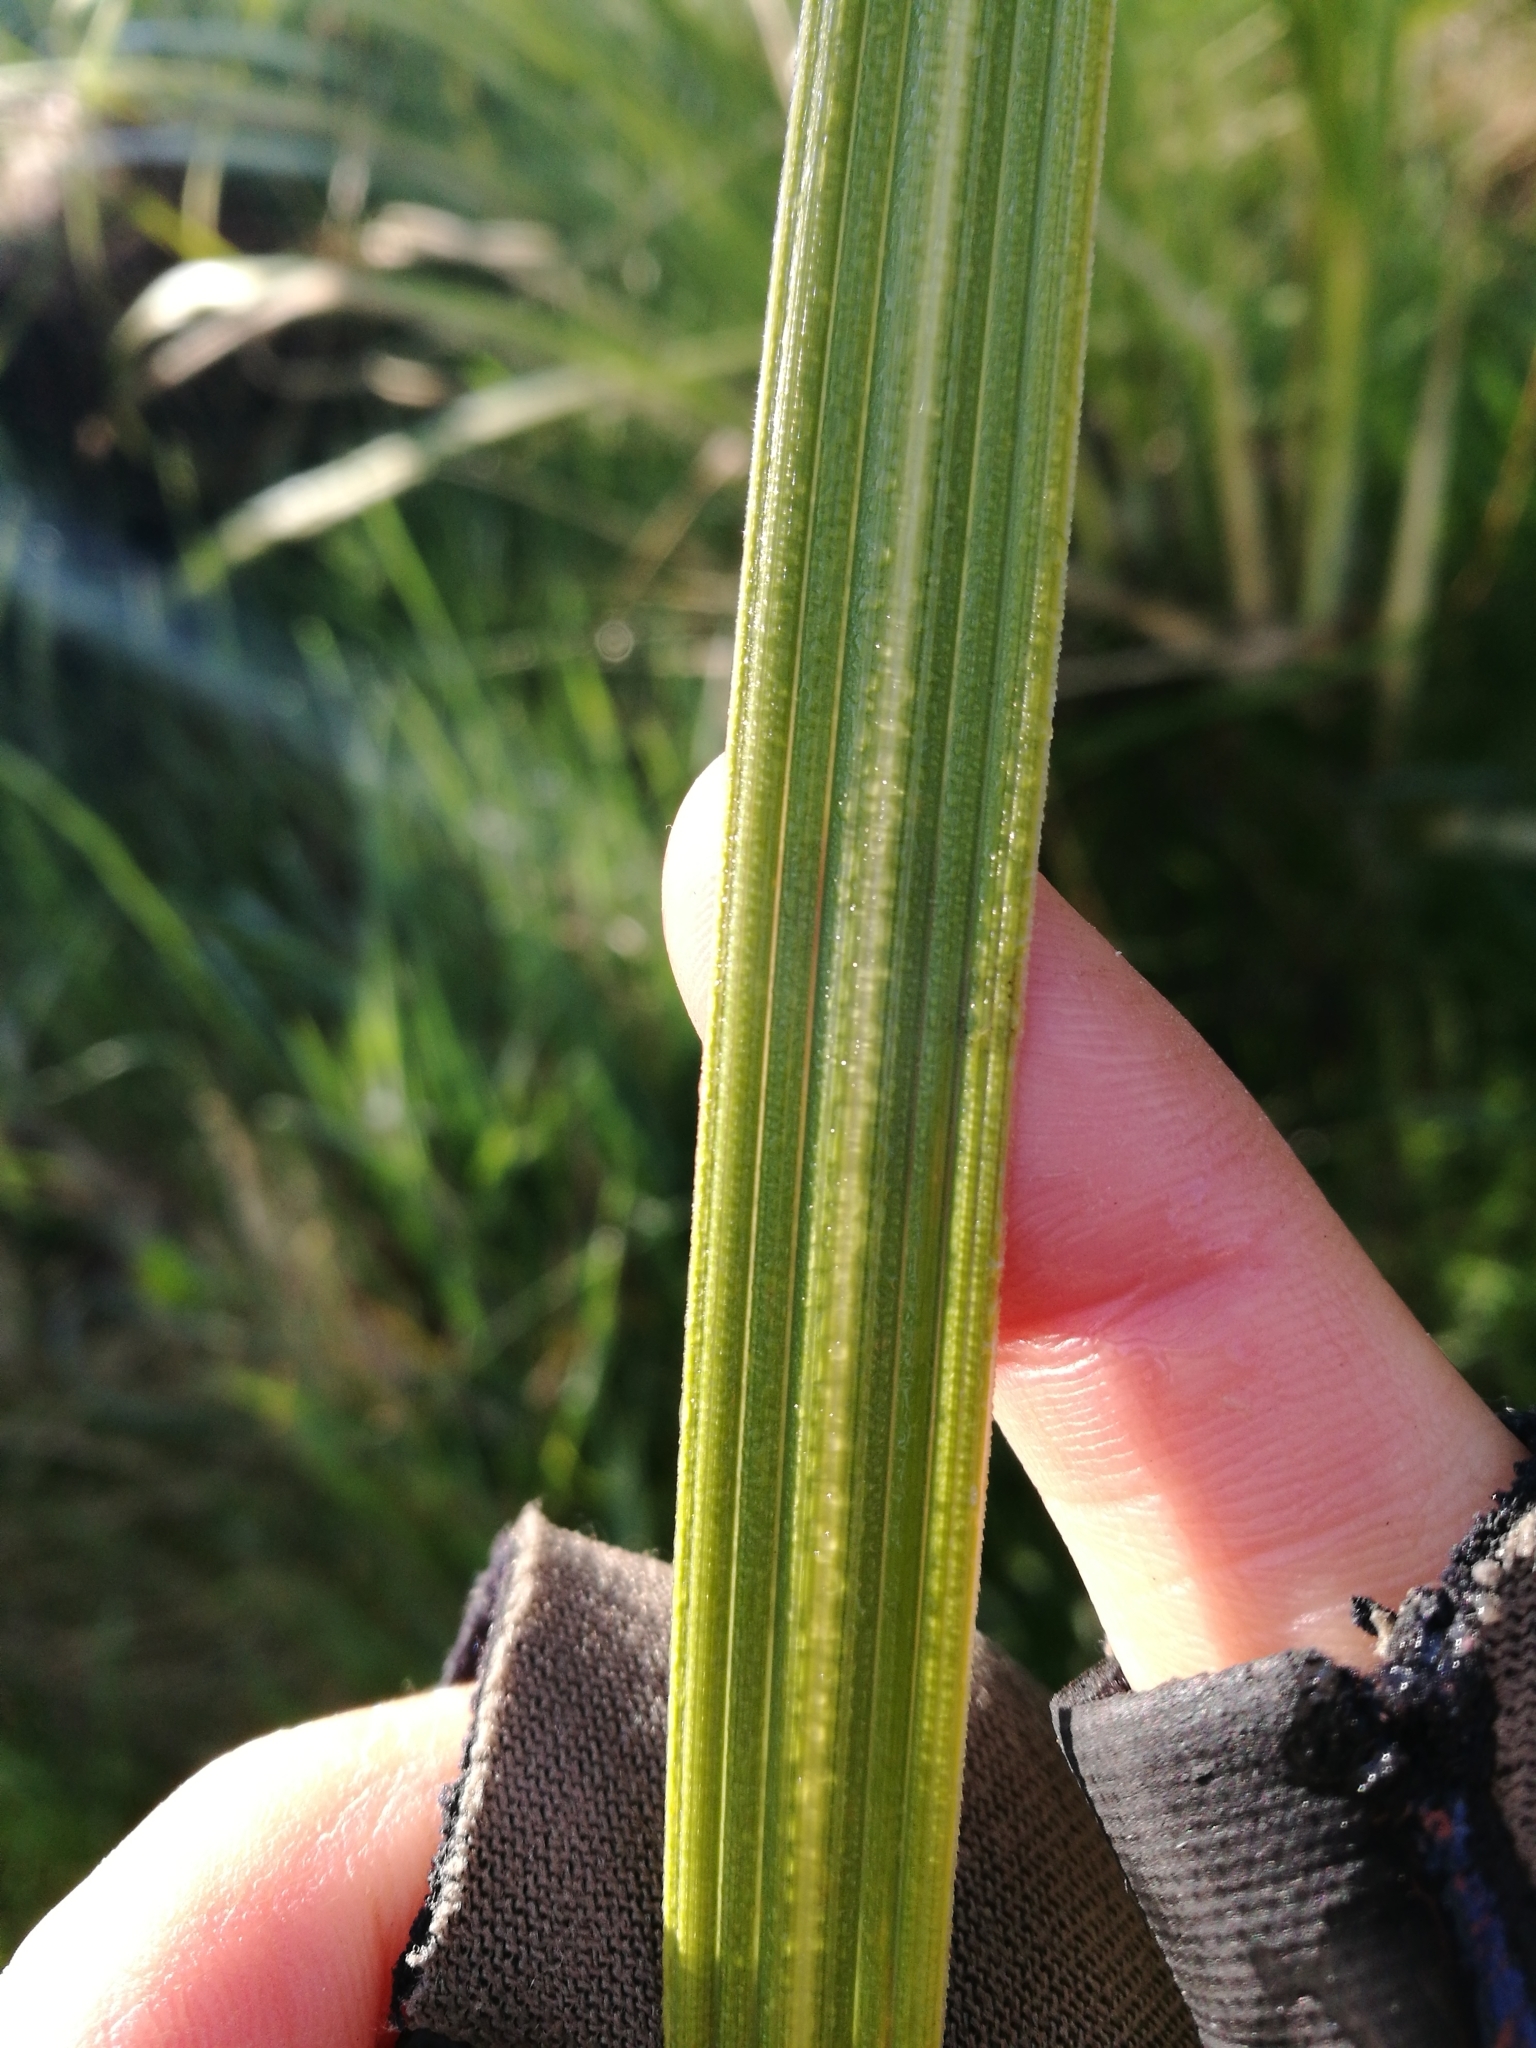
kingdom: Plantae
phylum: Tracheophyta
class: Liliopsida
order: Poales
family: Poaceae
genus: Austroderia
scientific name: Austroderia richardii
